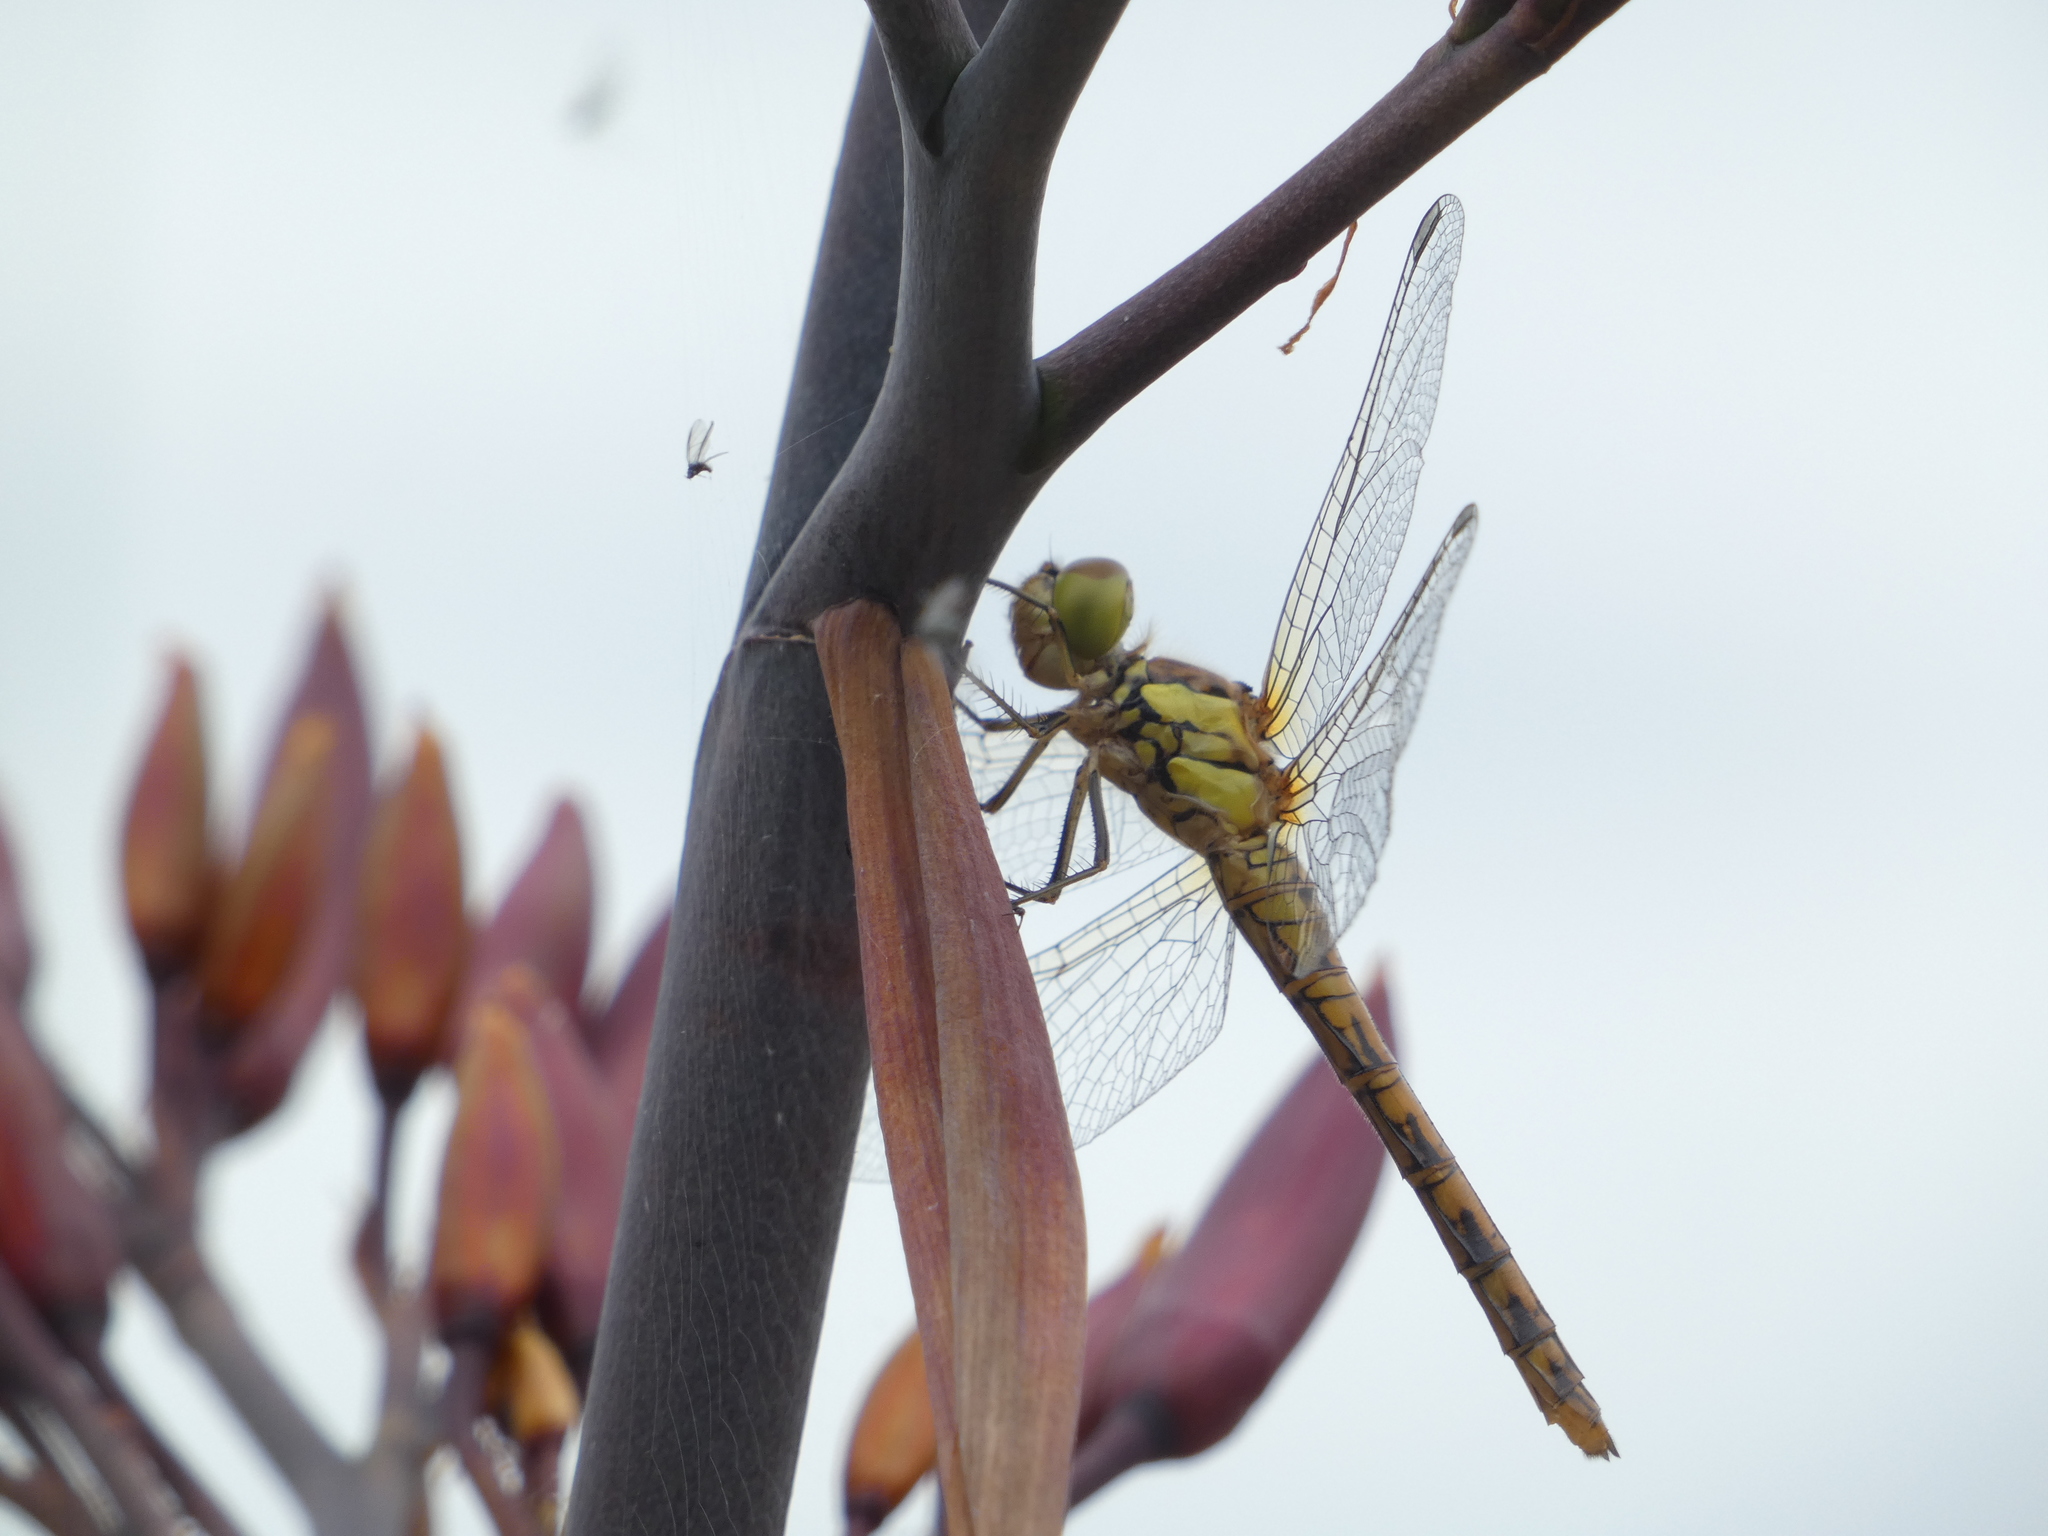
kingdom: Animalia
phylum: Arthropoda
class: Insecta
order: Odonata
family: Libellulidae
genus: Sympetrum
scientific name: Sympetrum striolatum
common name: Common darter
